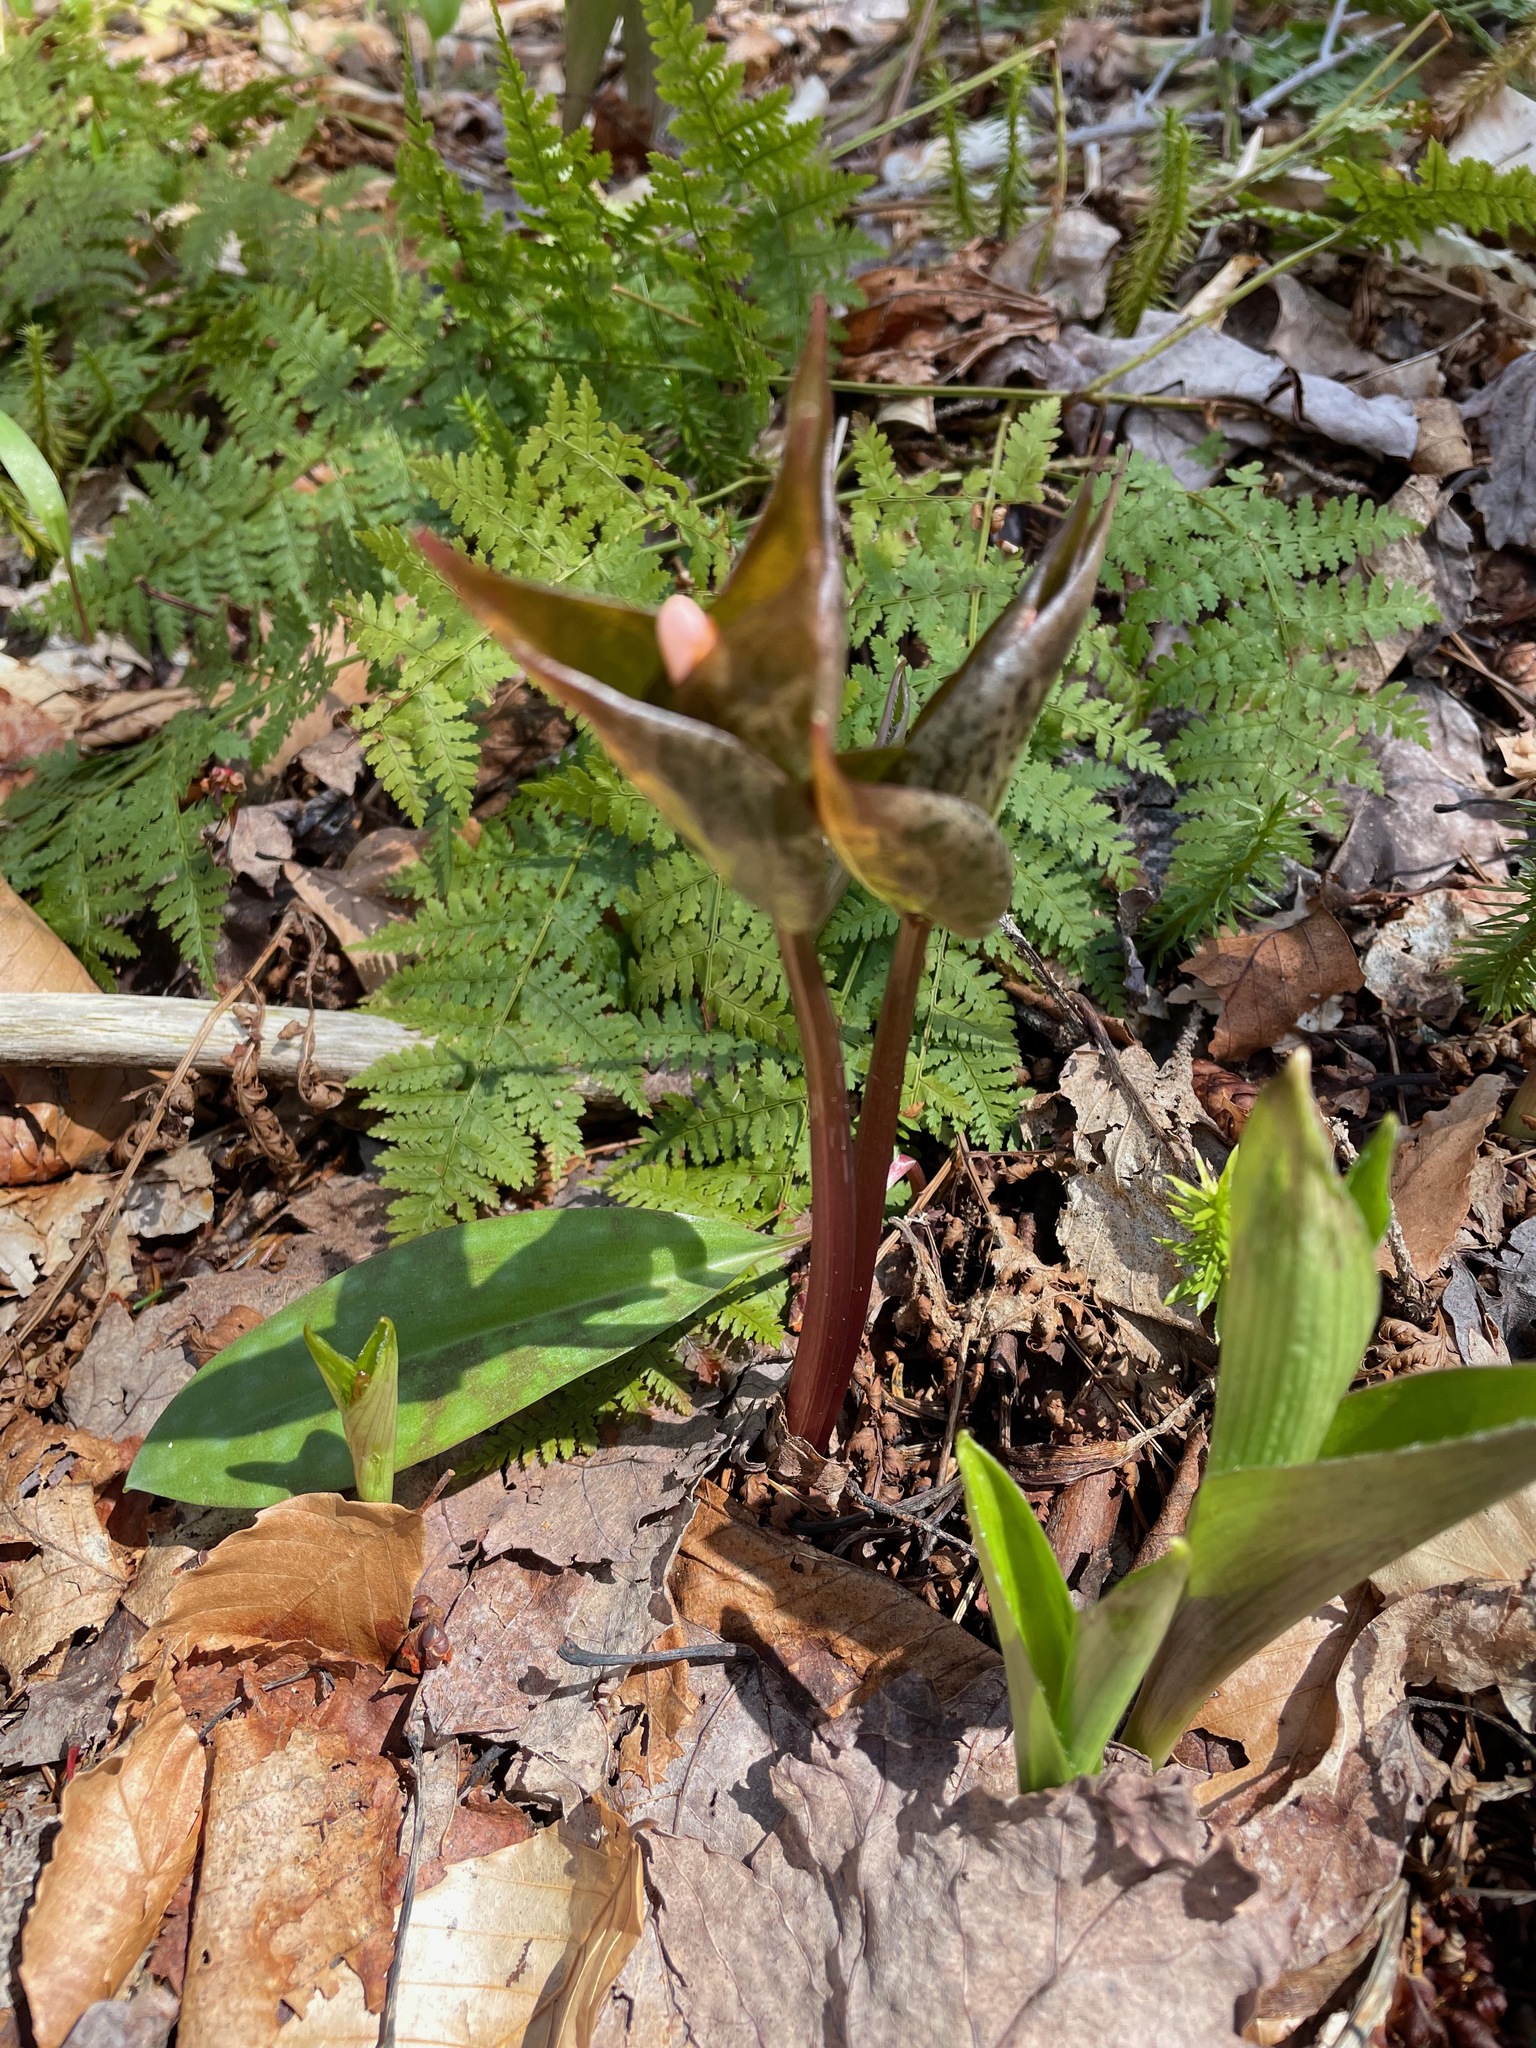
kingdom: Plantae
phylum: Tracheophyta
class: Liliopsida
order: Liliales
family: Melanthiaceae
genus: Trillium
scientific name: Trillium undulatum
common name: Paint trillium
